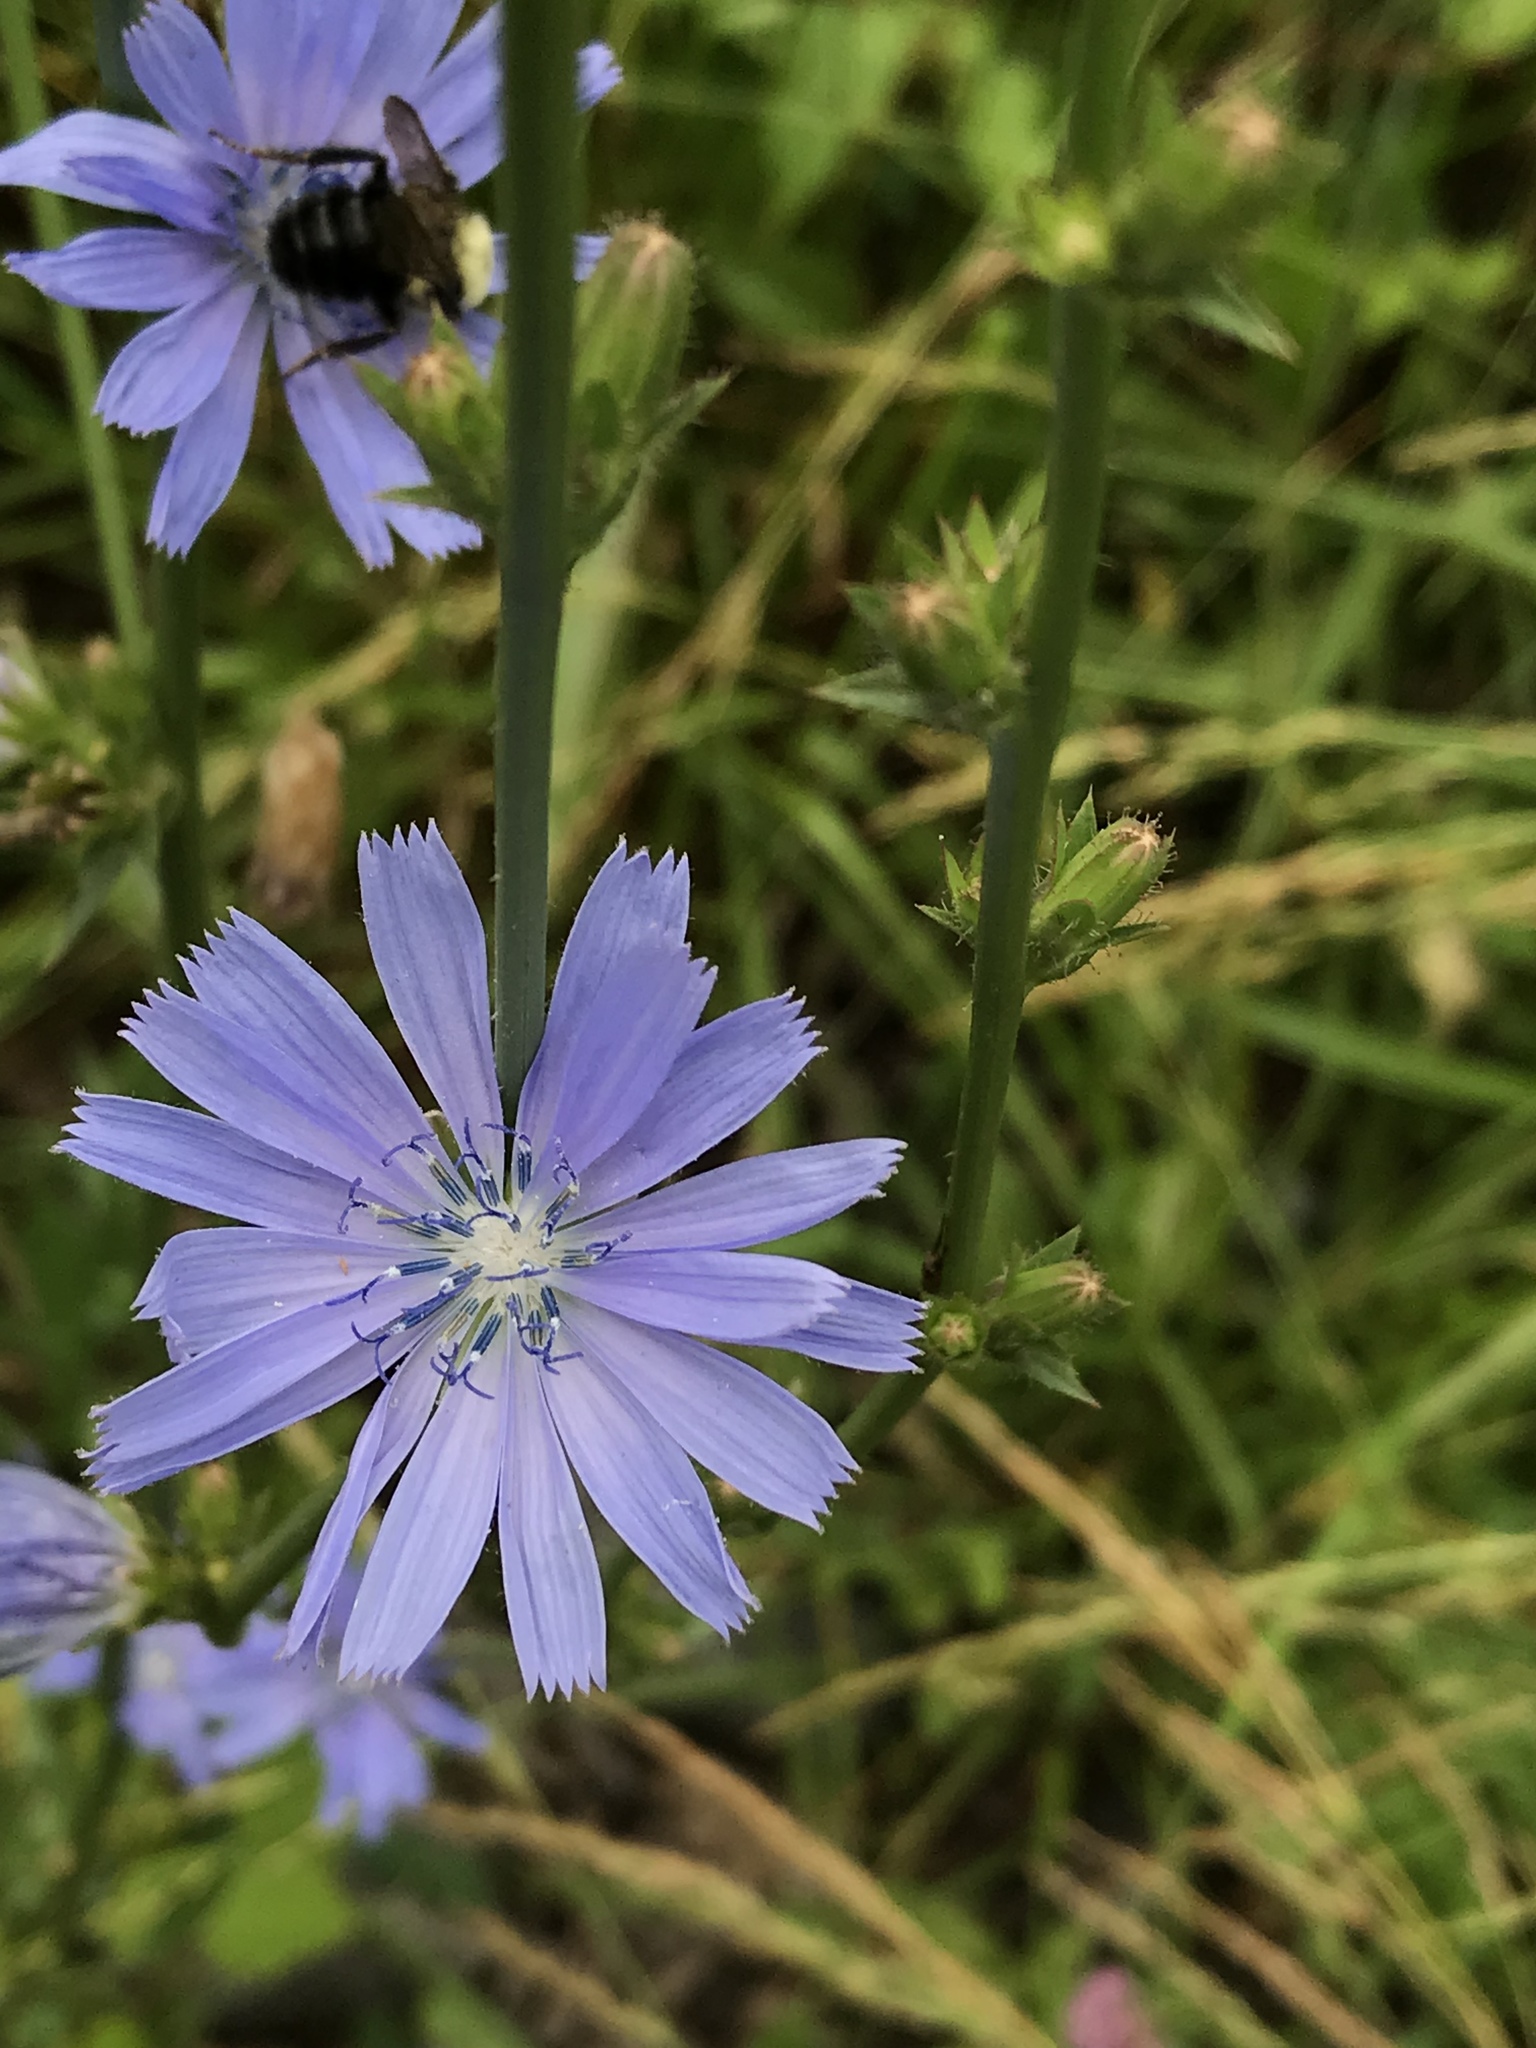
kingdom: Plantae
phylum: Tracheophyta
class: Magnoliopsida
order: Asterales
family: Asteraceae
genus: Cichorium
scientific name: Cichorium intybus
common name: Chicory
